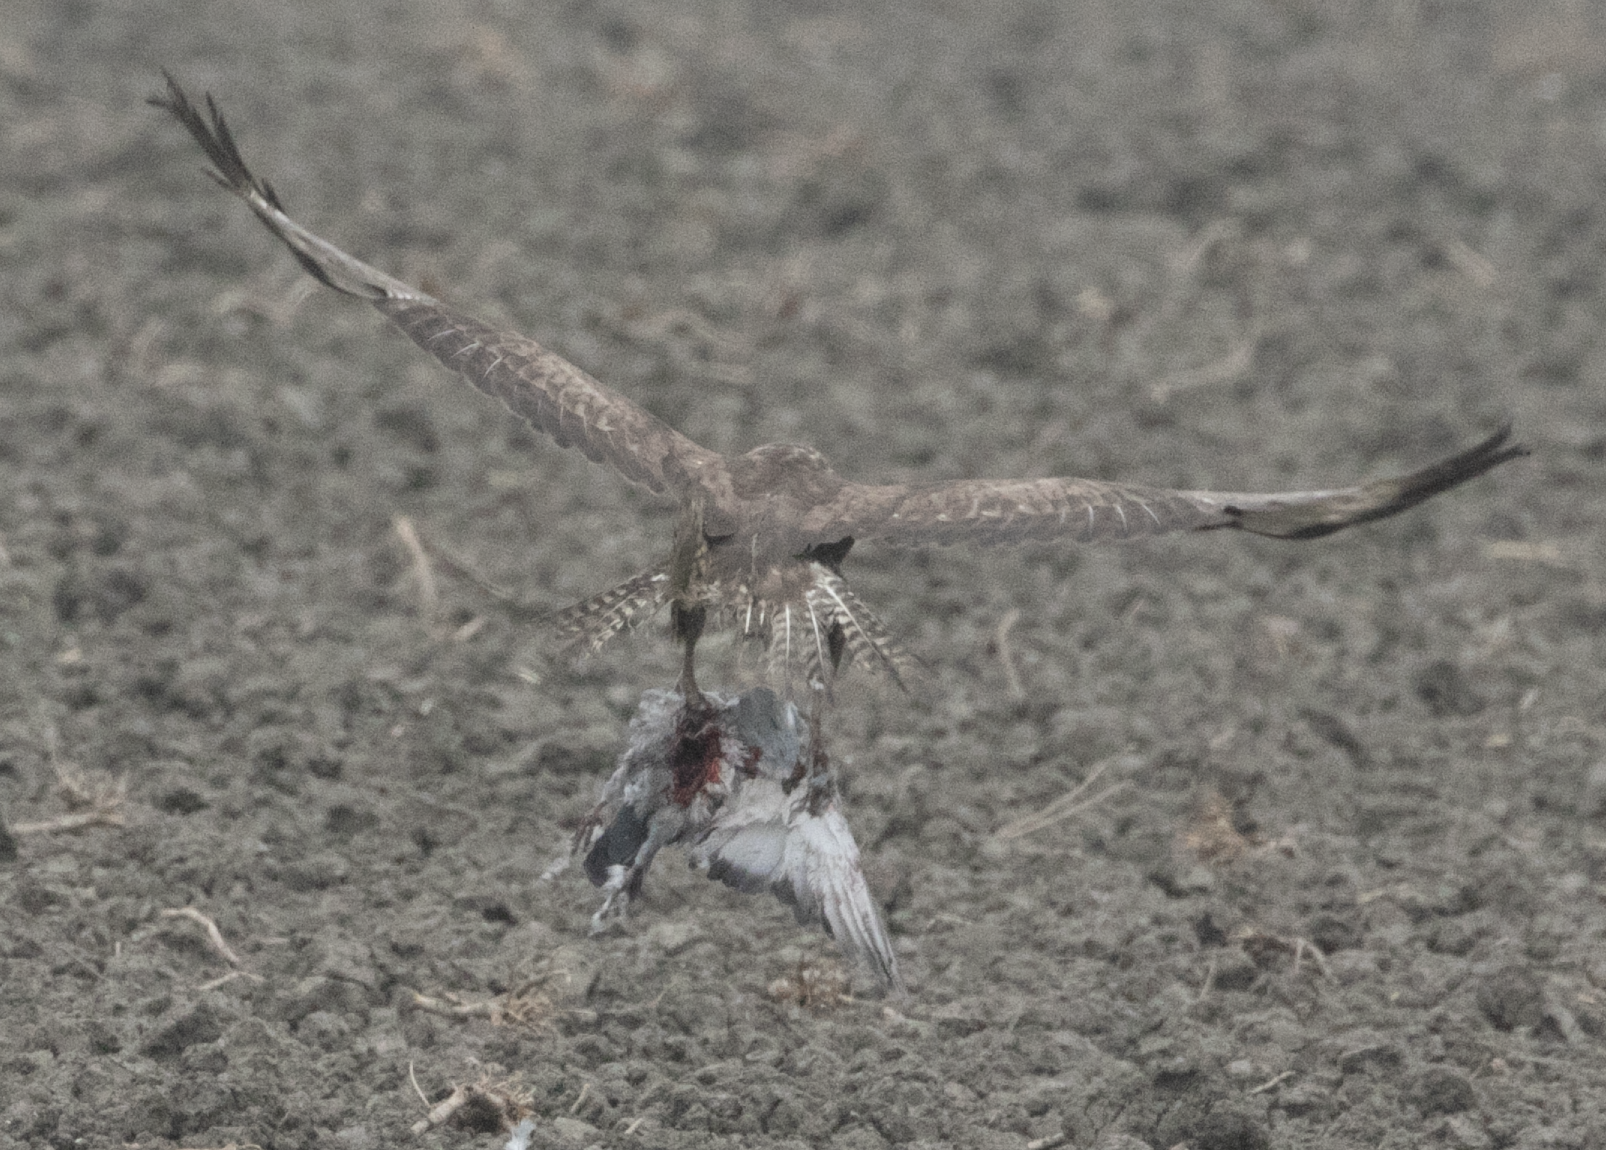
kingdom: Animalia
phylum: Chordata
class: Aves
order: Accipitriformes
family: Accipitridae
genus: Buteo
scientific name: Buteo buteo
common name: Common buzzard
